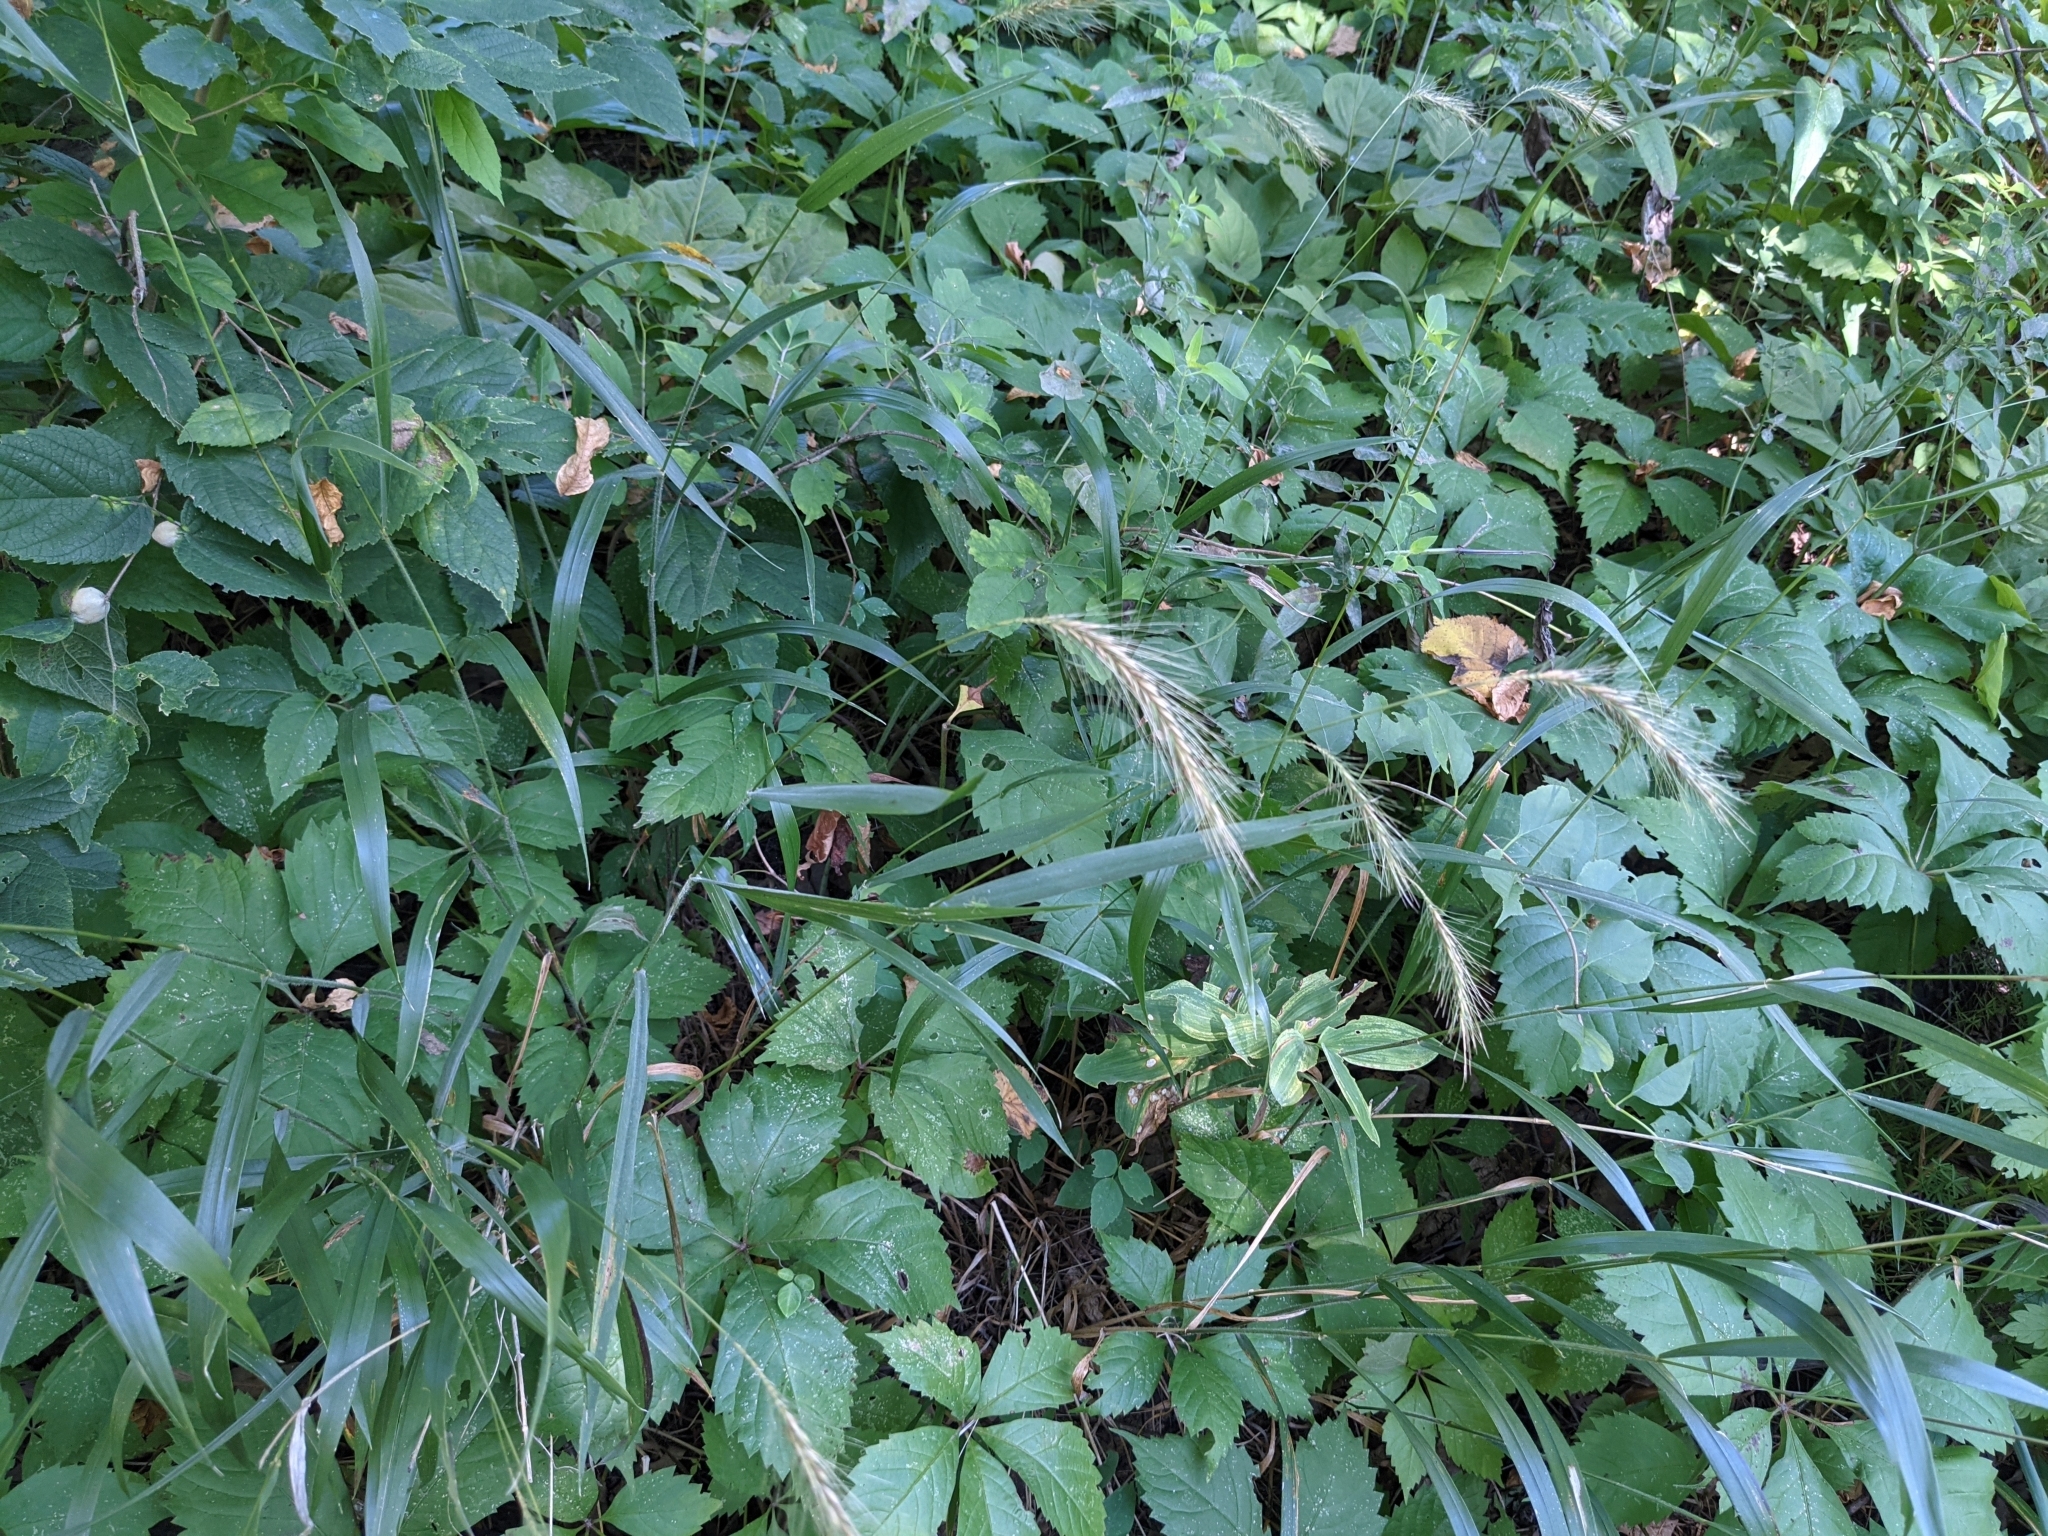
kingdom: Plantae
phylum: Tracheophyta
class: Liliopsida
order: Poales
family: Poaceae
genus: Elymus
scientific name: Elymus villosus
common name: Downy wild rye
